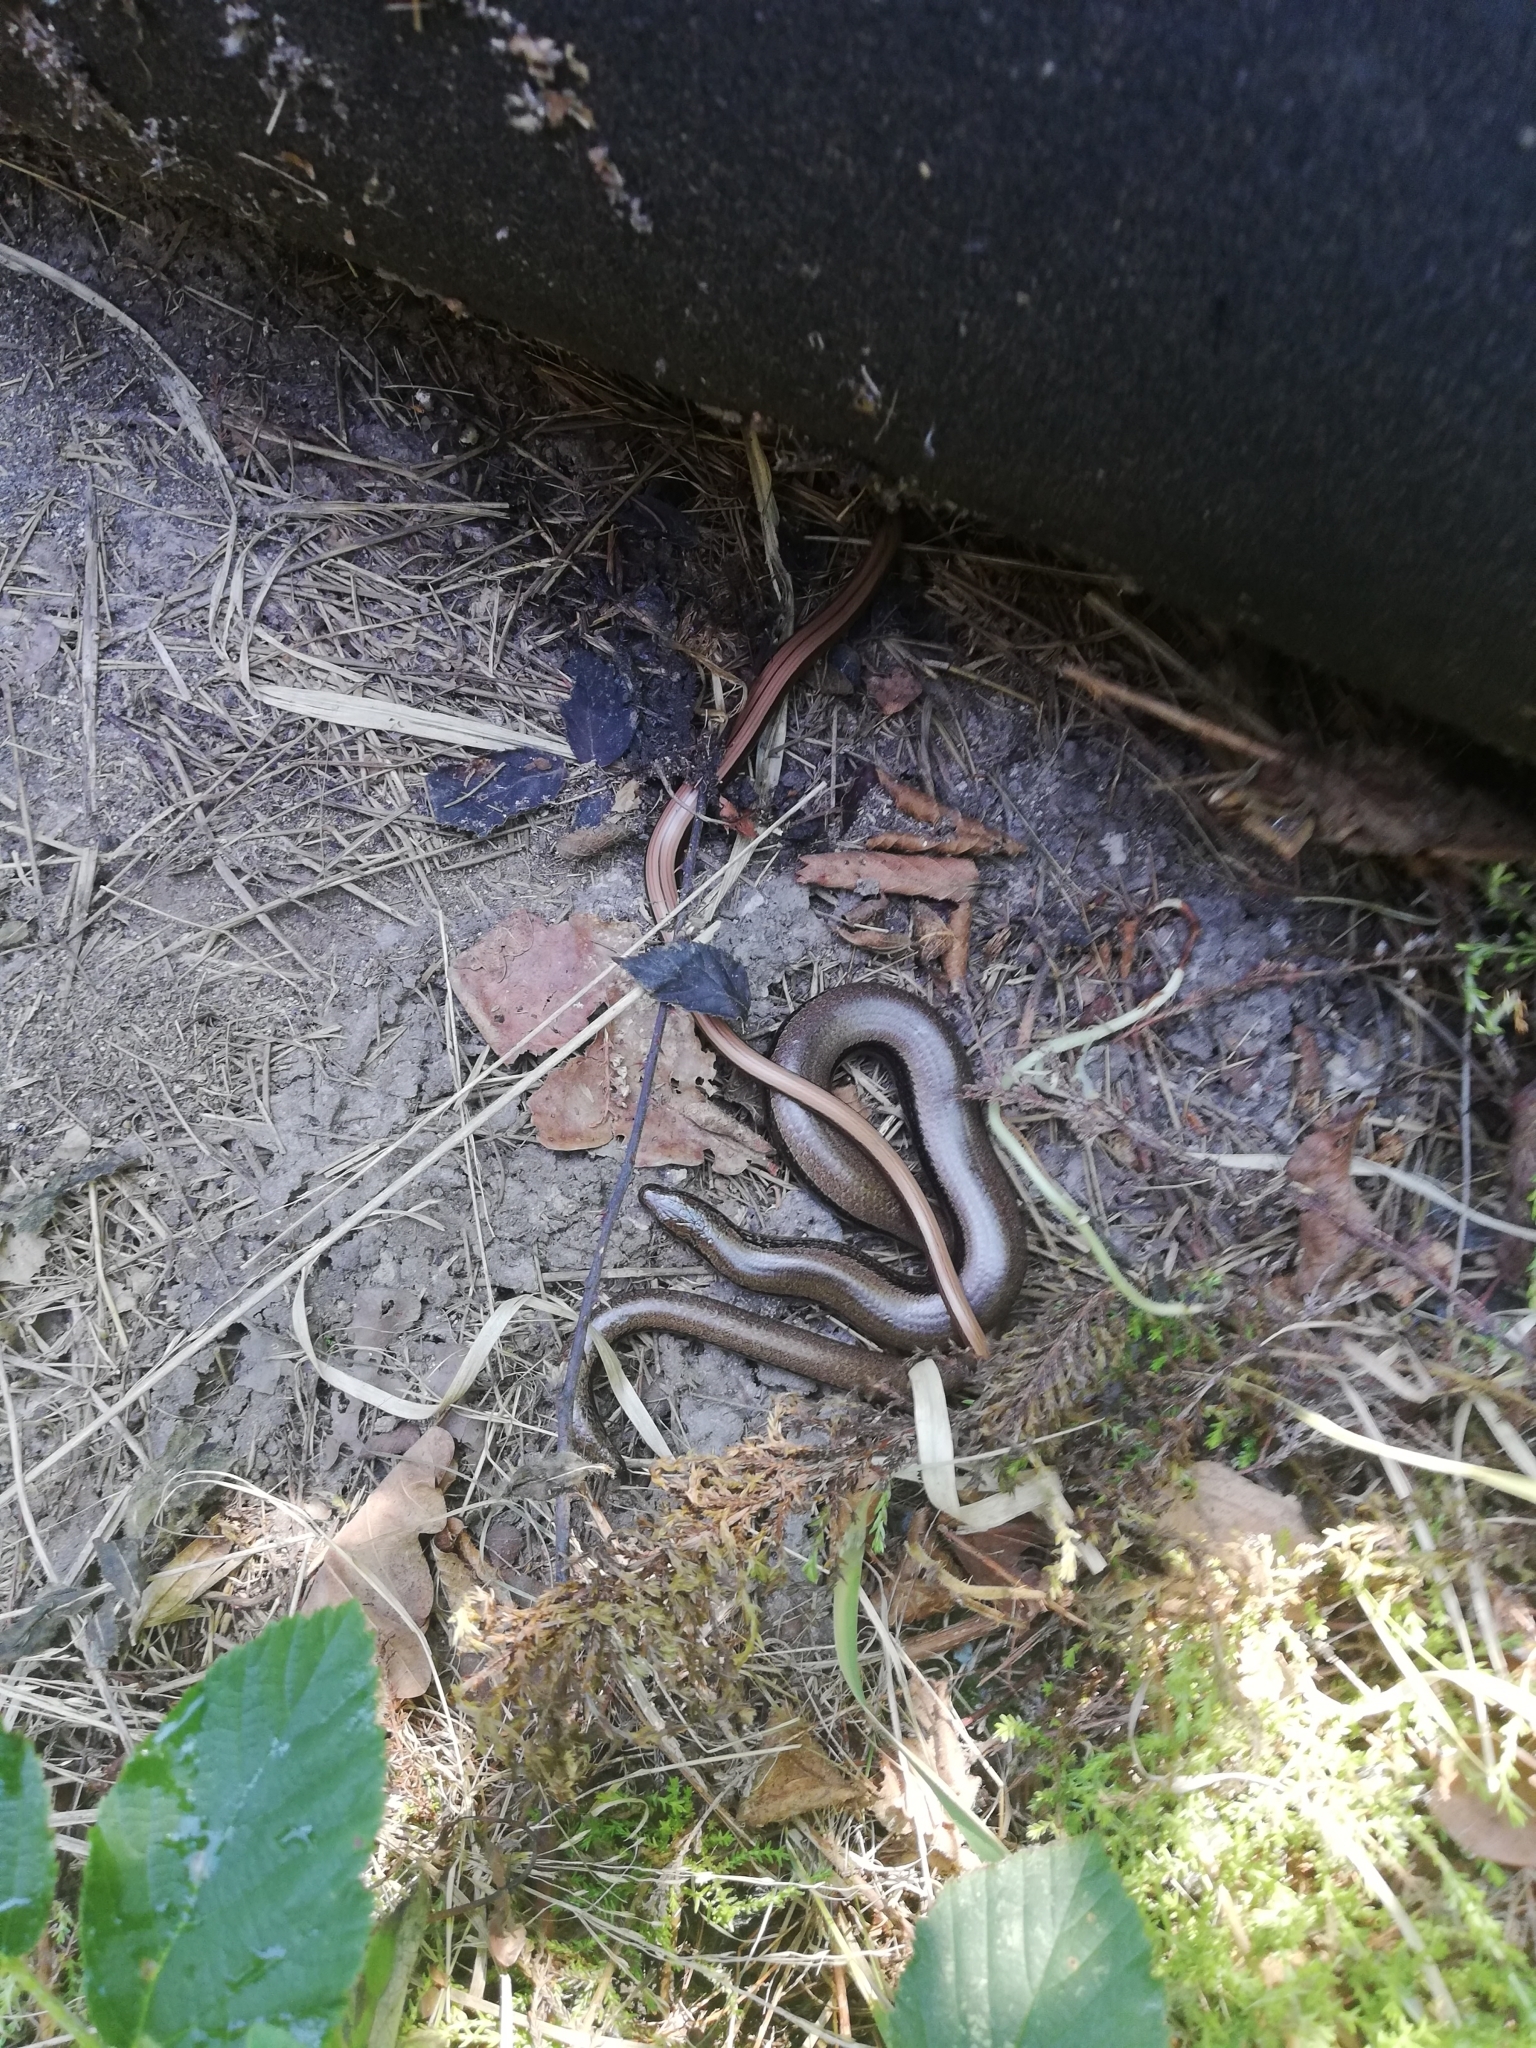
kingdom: Animalia
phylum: Chordata
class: Squamata
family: Anguidae
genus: Anguis
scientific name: Anguis fragilis
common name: Slow worm
